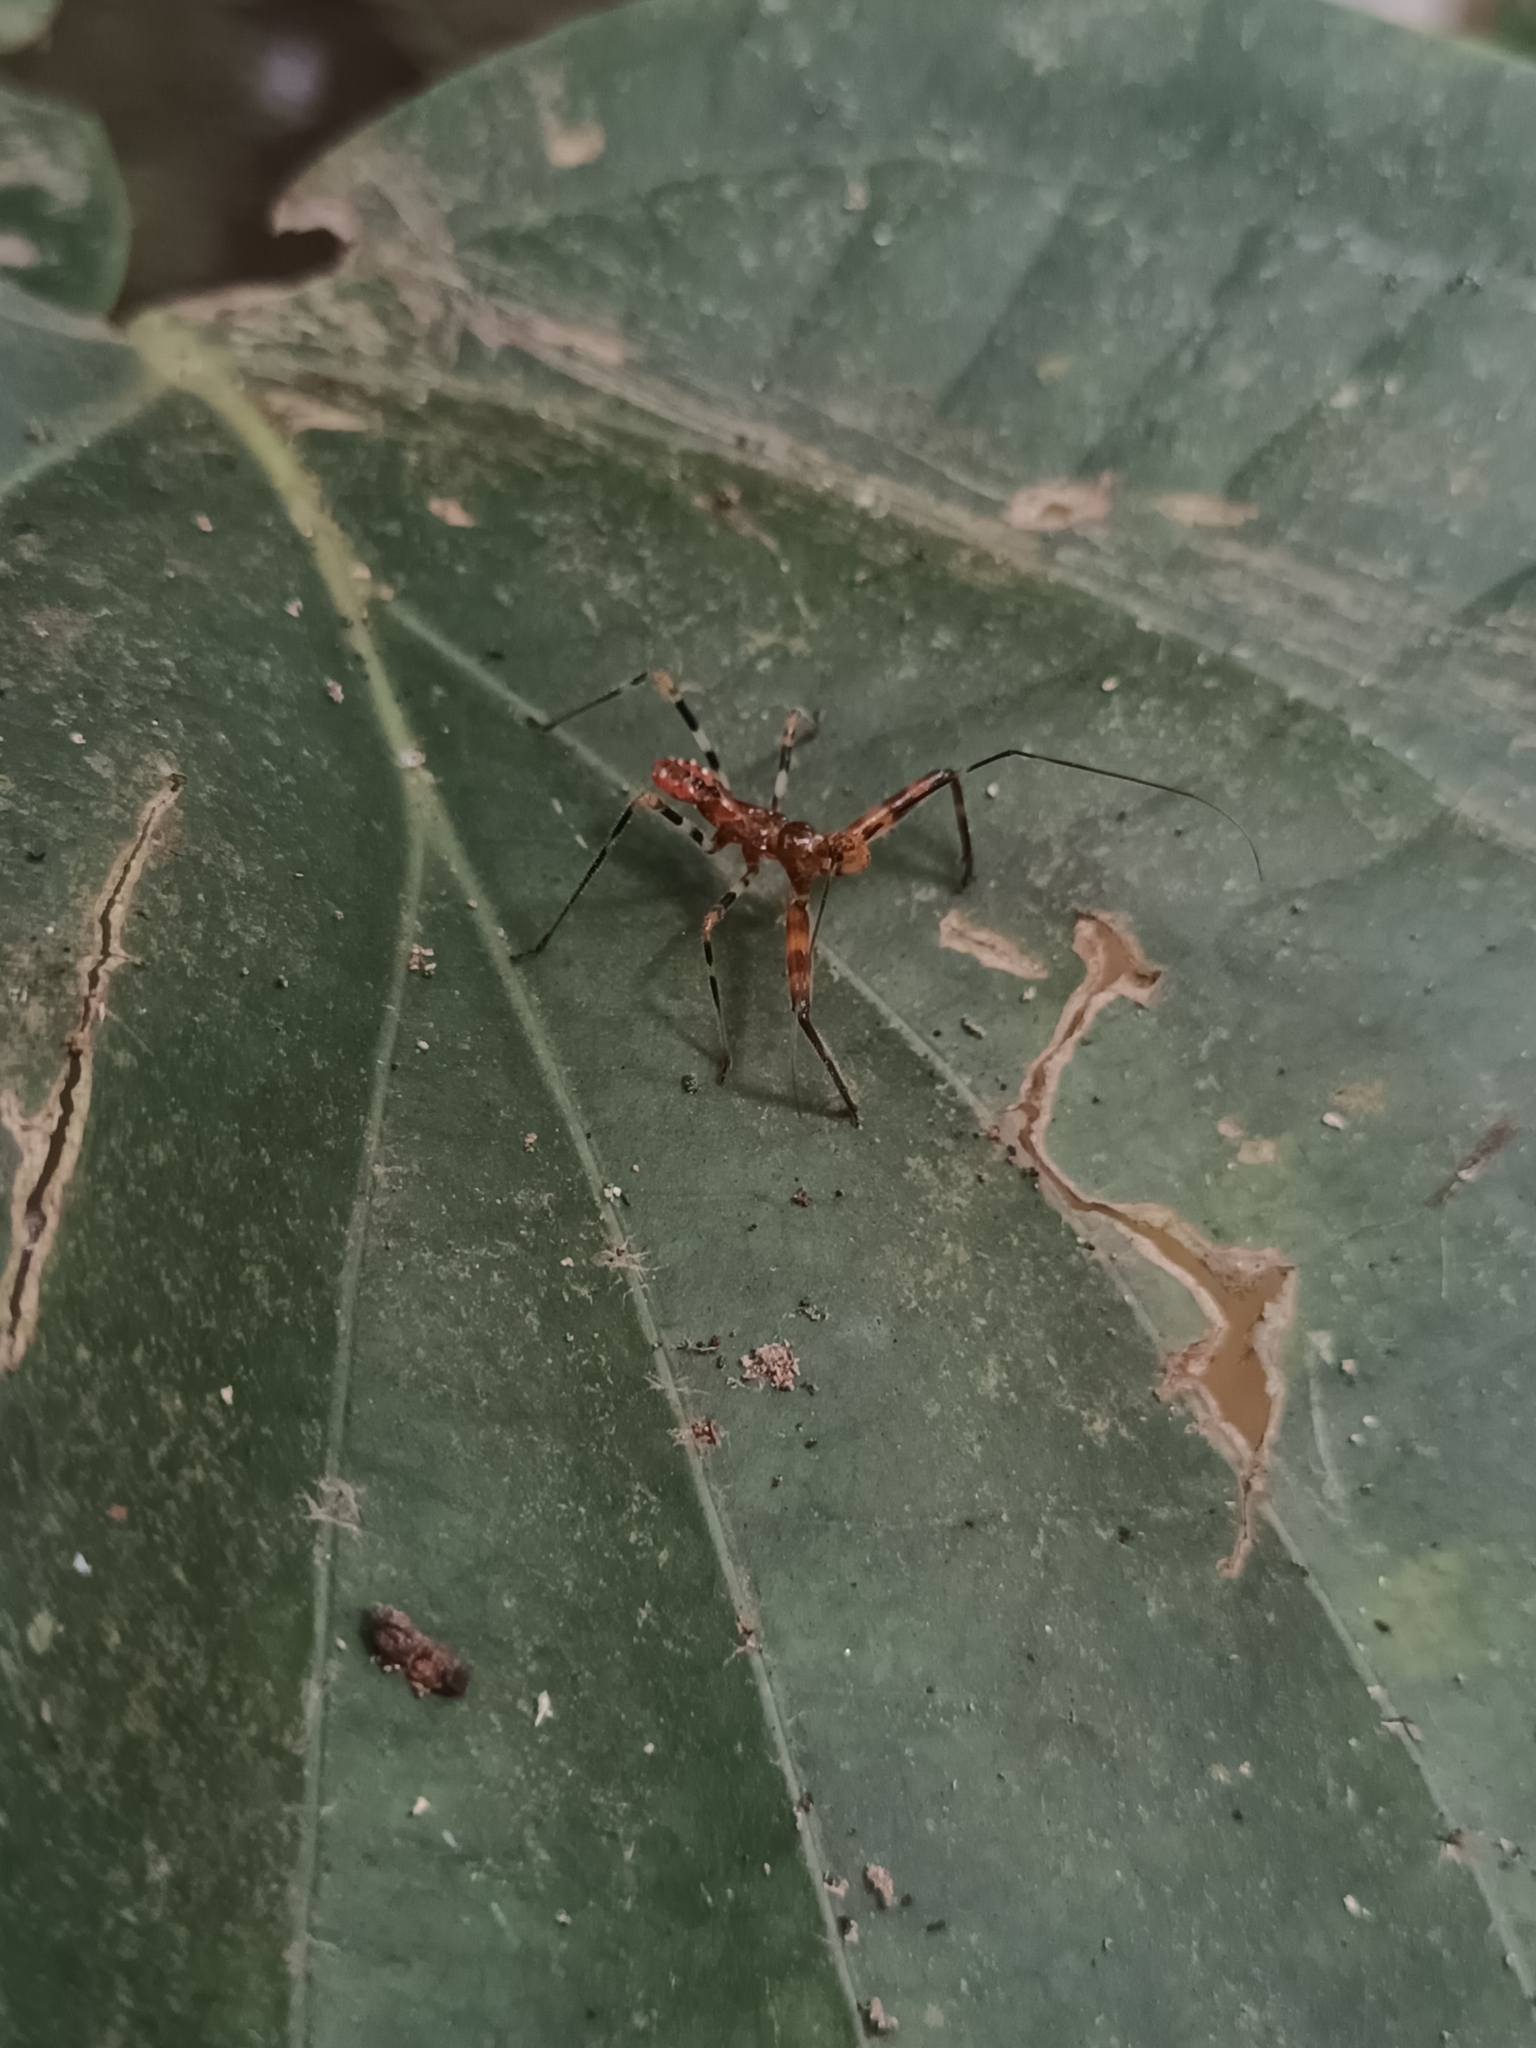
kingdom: Animalia
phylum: Arthropoda
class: Insecta
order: Hemiptera
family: Reduviidae
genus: Rihirbus
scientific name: Rihirbus trochantericus
